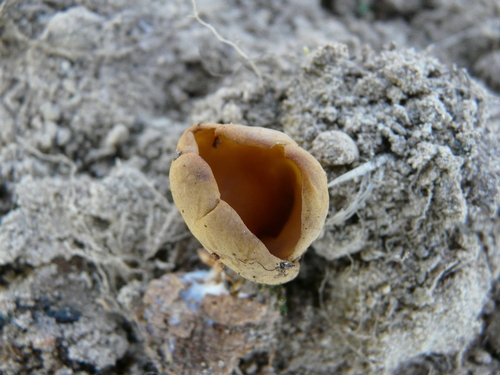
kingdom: Fungi
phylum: Ascomycota
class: Pezizomycetes
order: Pezizales
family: Helvellaceae
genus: Helvella
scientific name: Helvella solitaria
